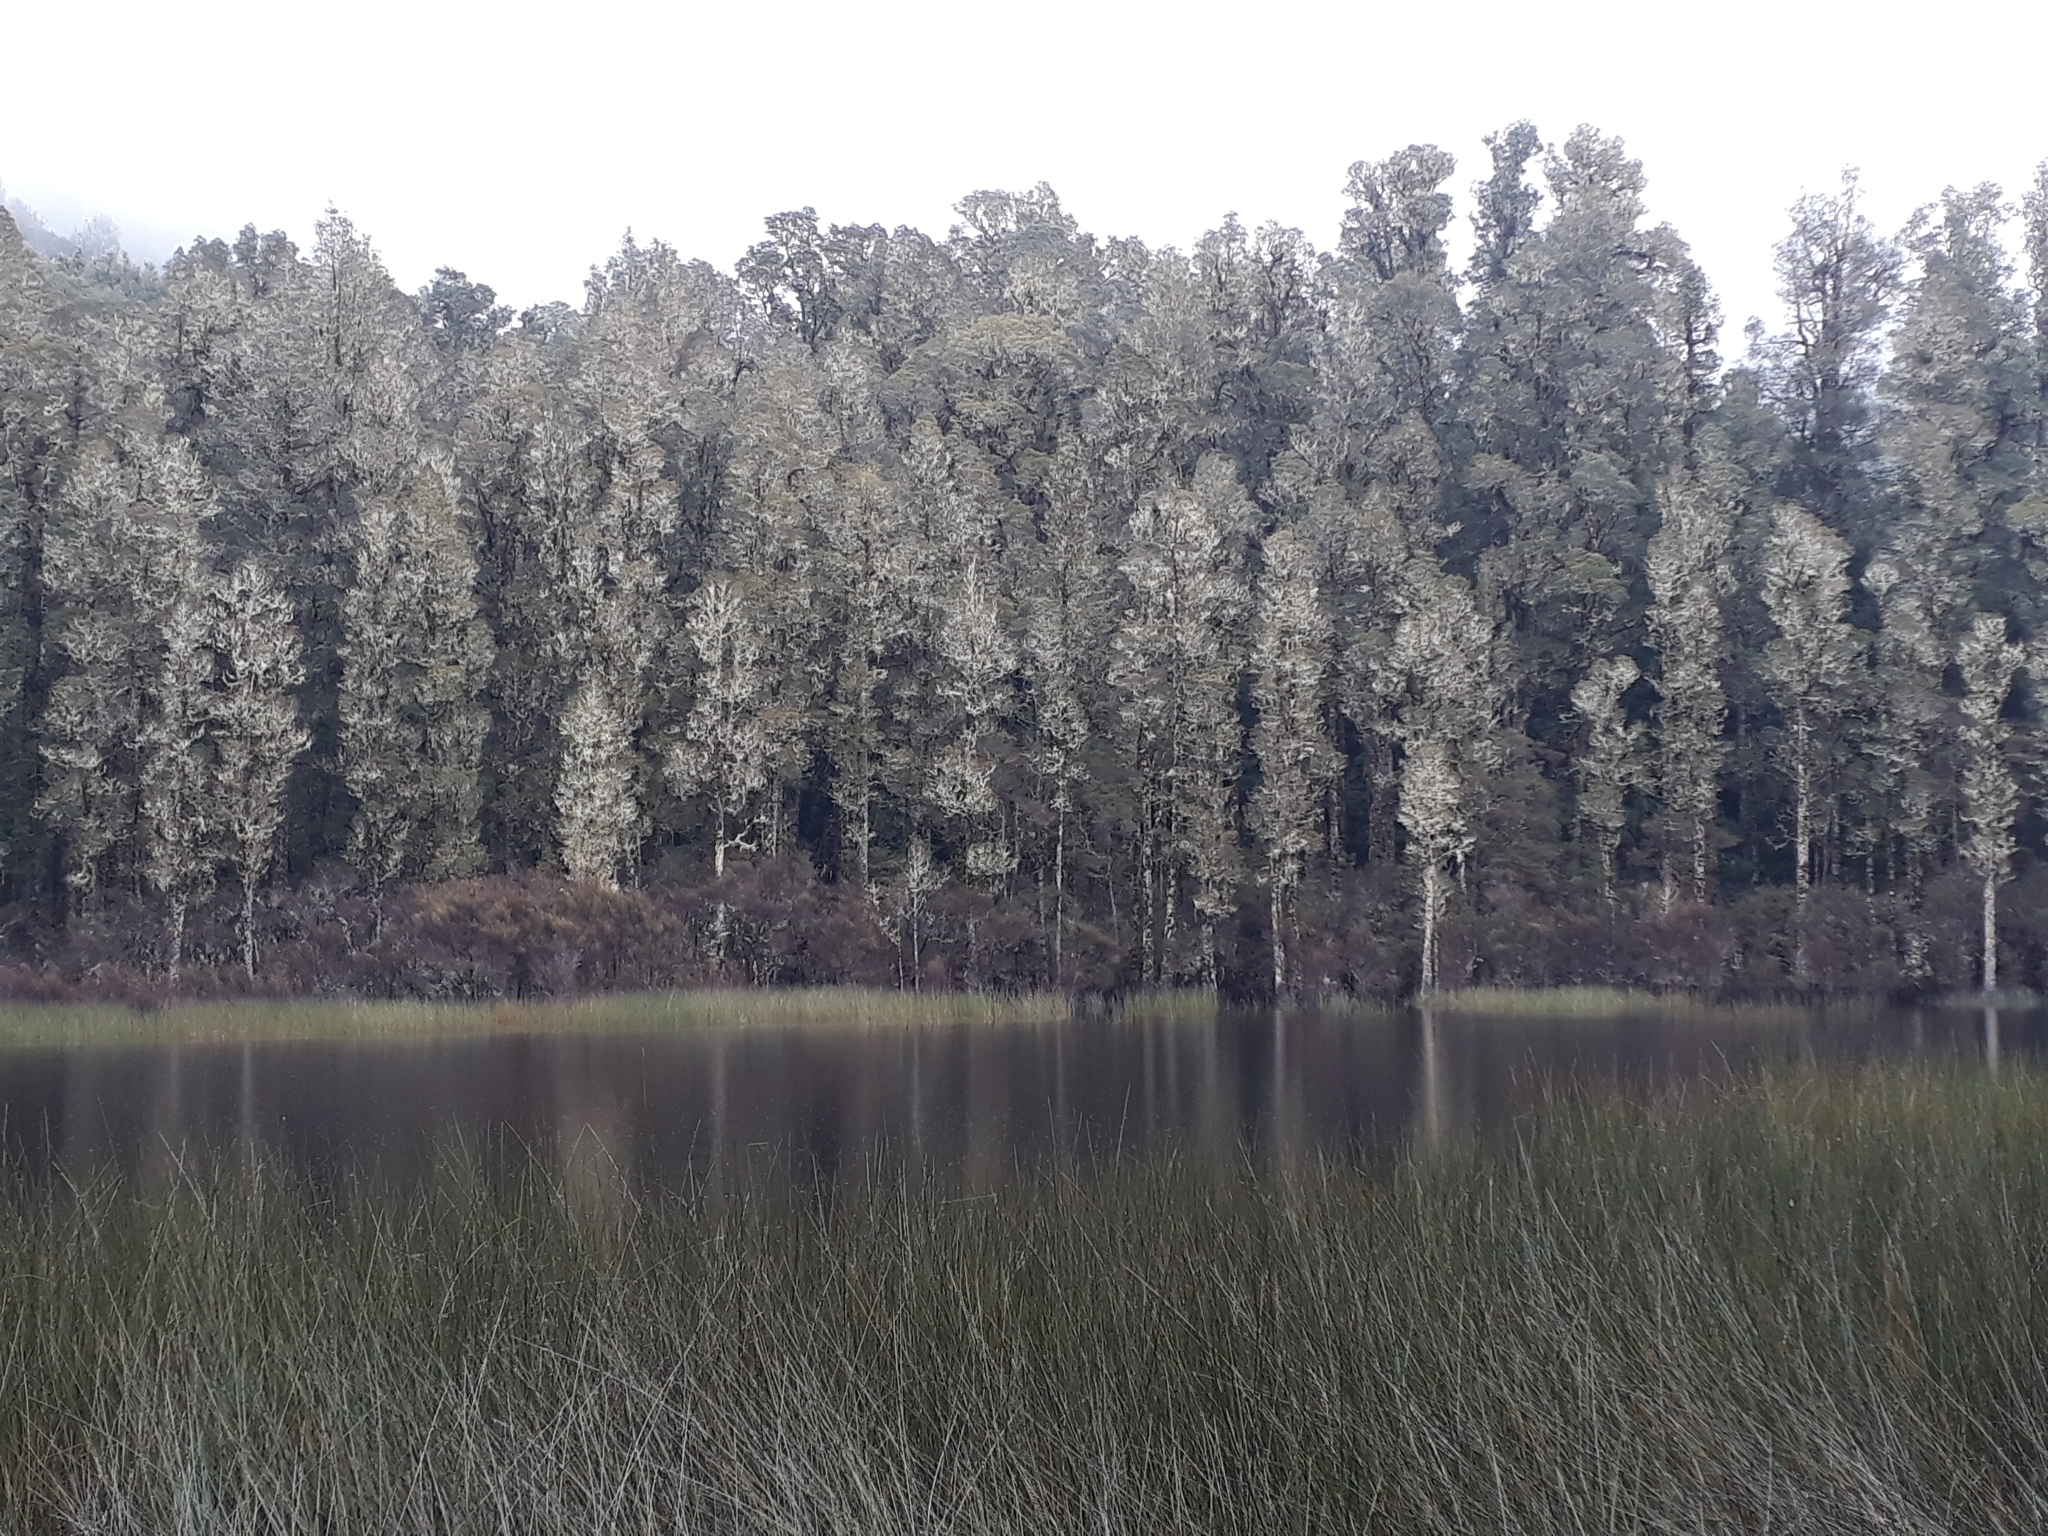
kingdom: Plantae
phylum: Tracheophyta
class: Pinopsida
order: Pinales
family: Podocarpaceae
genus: Dacrycarpus
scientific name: Dacrycarpus dacrydioides
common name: White pine
